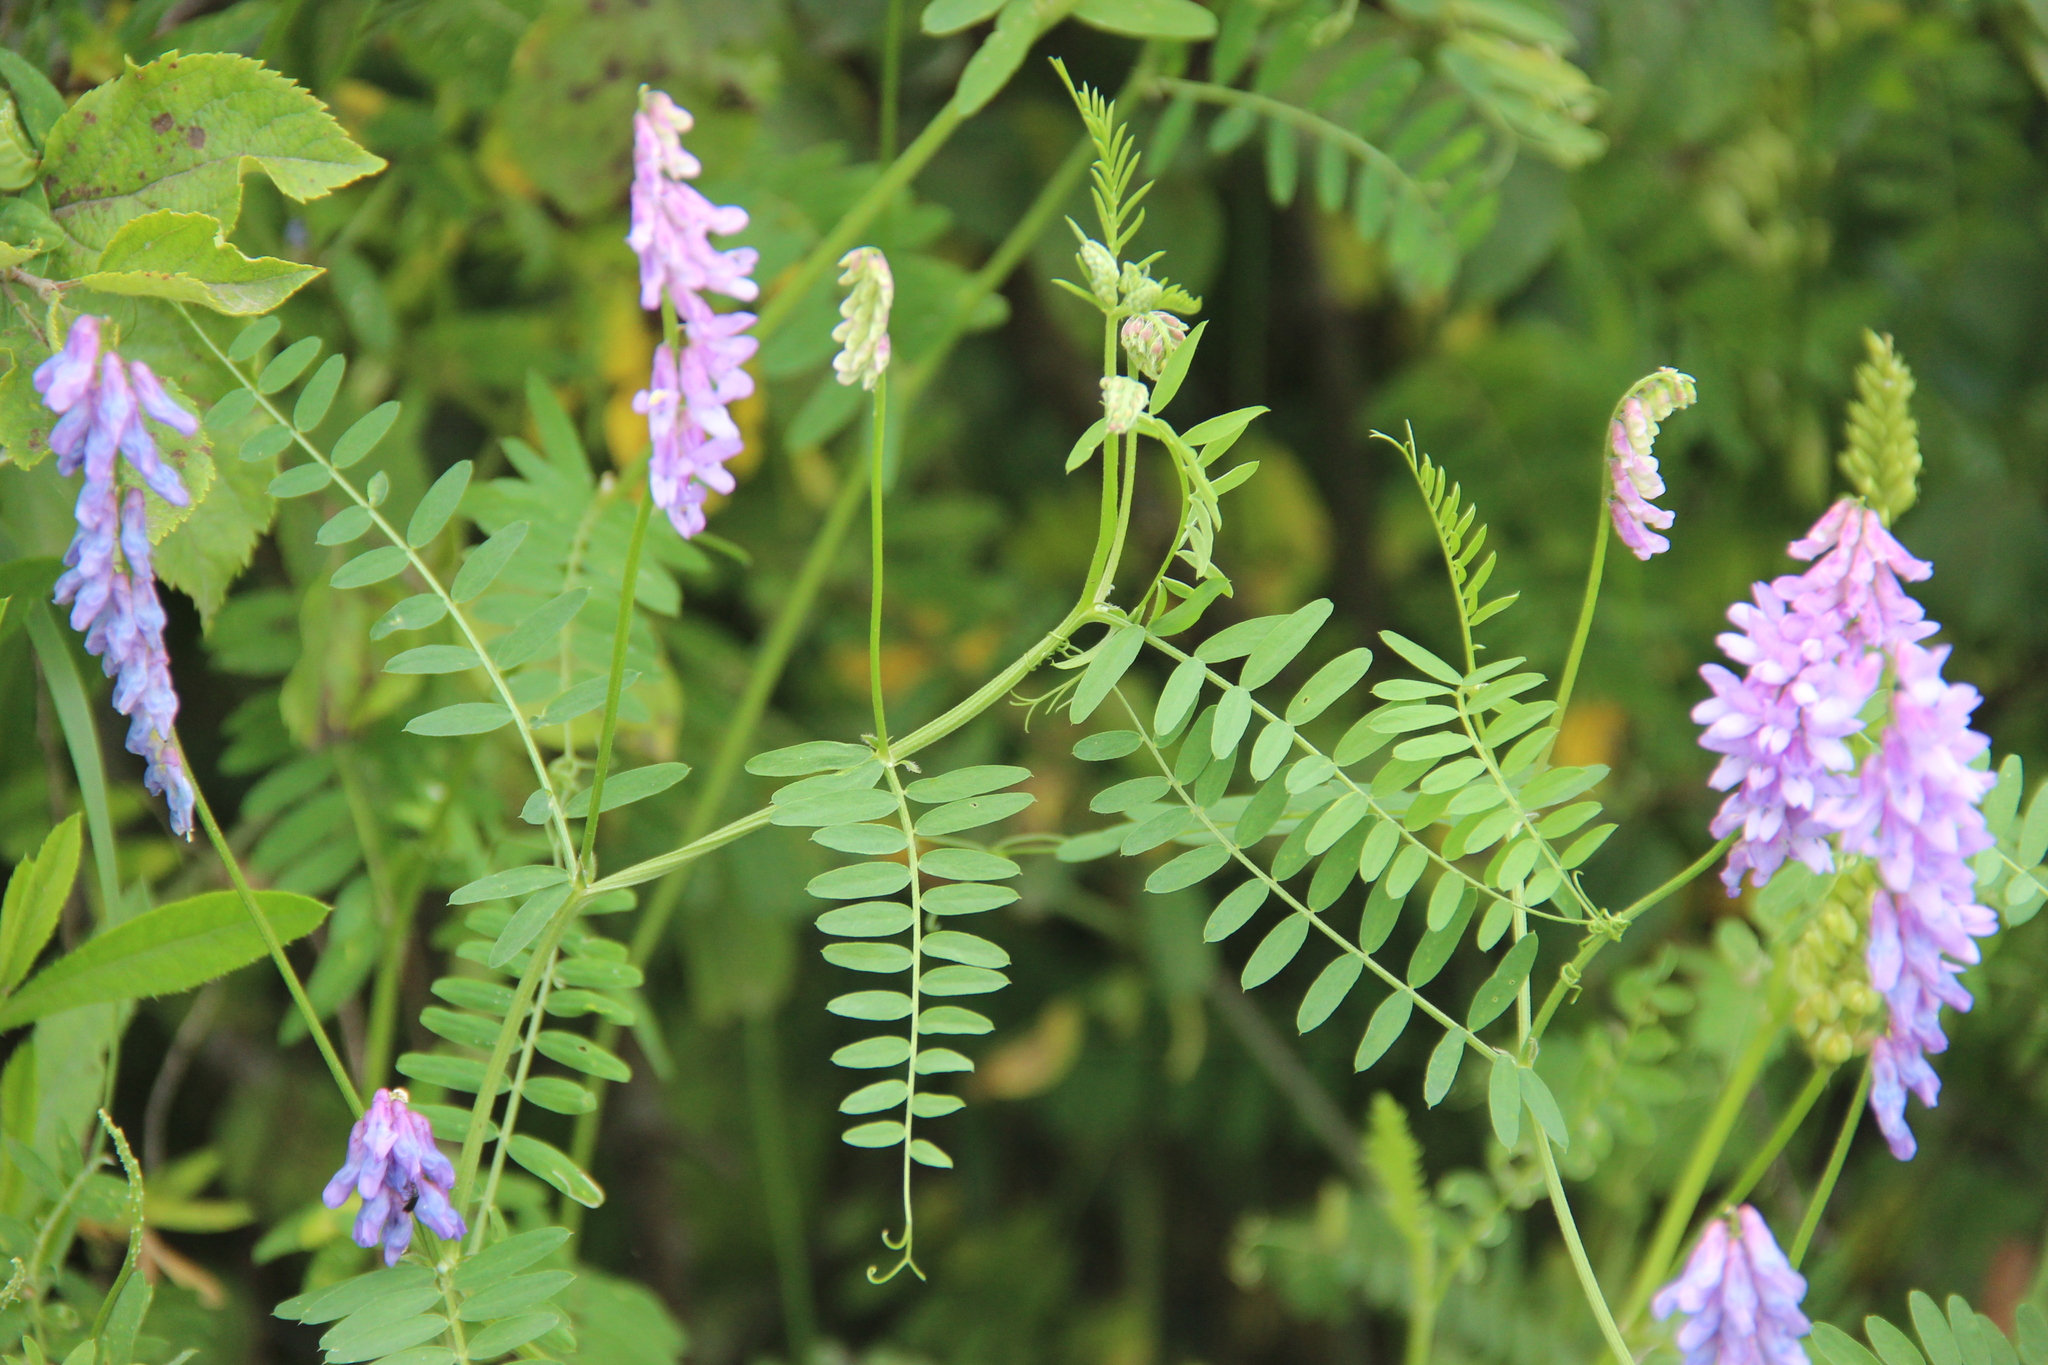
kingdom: Plantae
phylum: Tracheophyta
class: Magnoliopsida
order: Fabales
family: Fabaceae
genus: Vicia
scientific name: Vicia cracca
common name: Bird vetch
